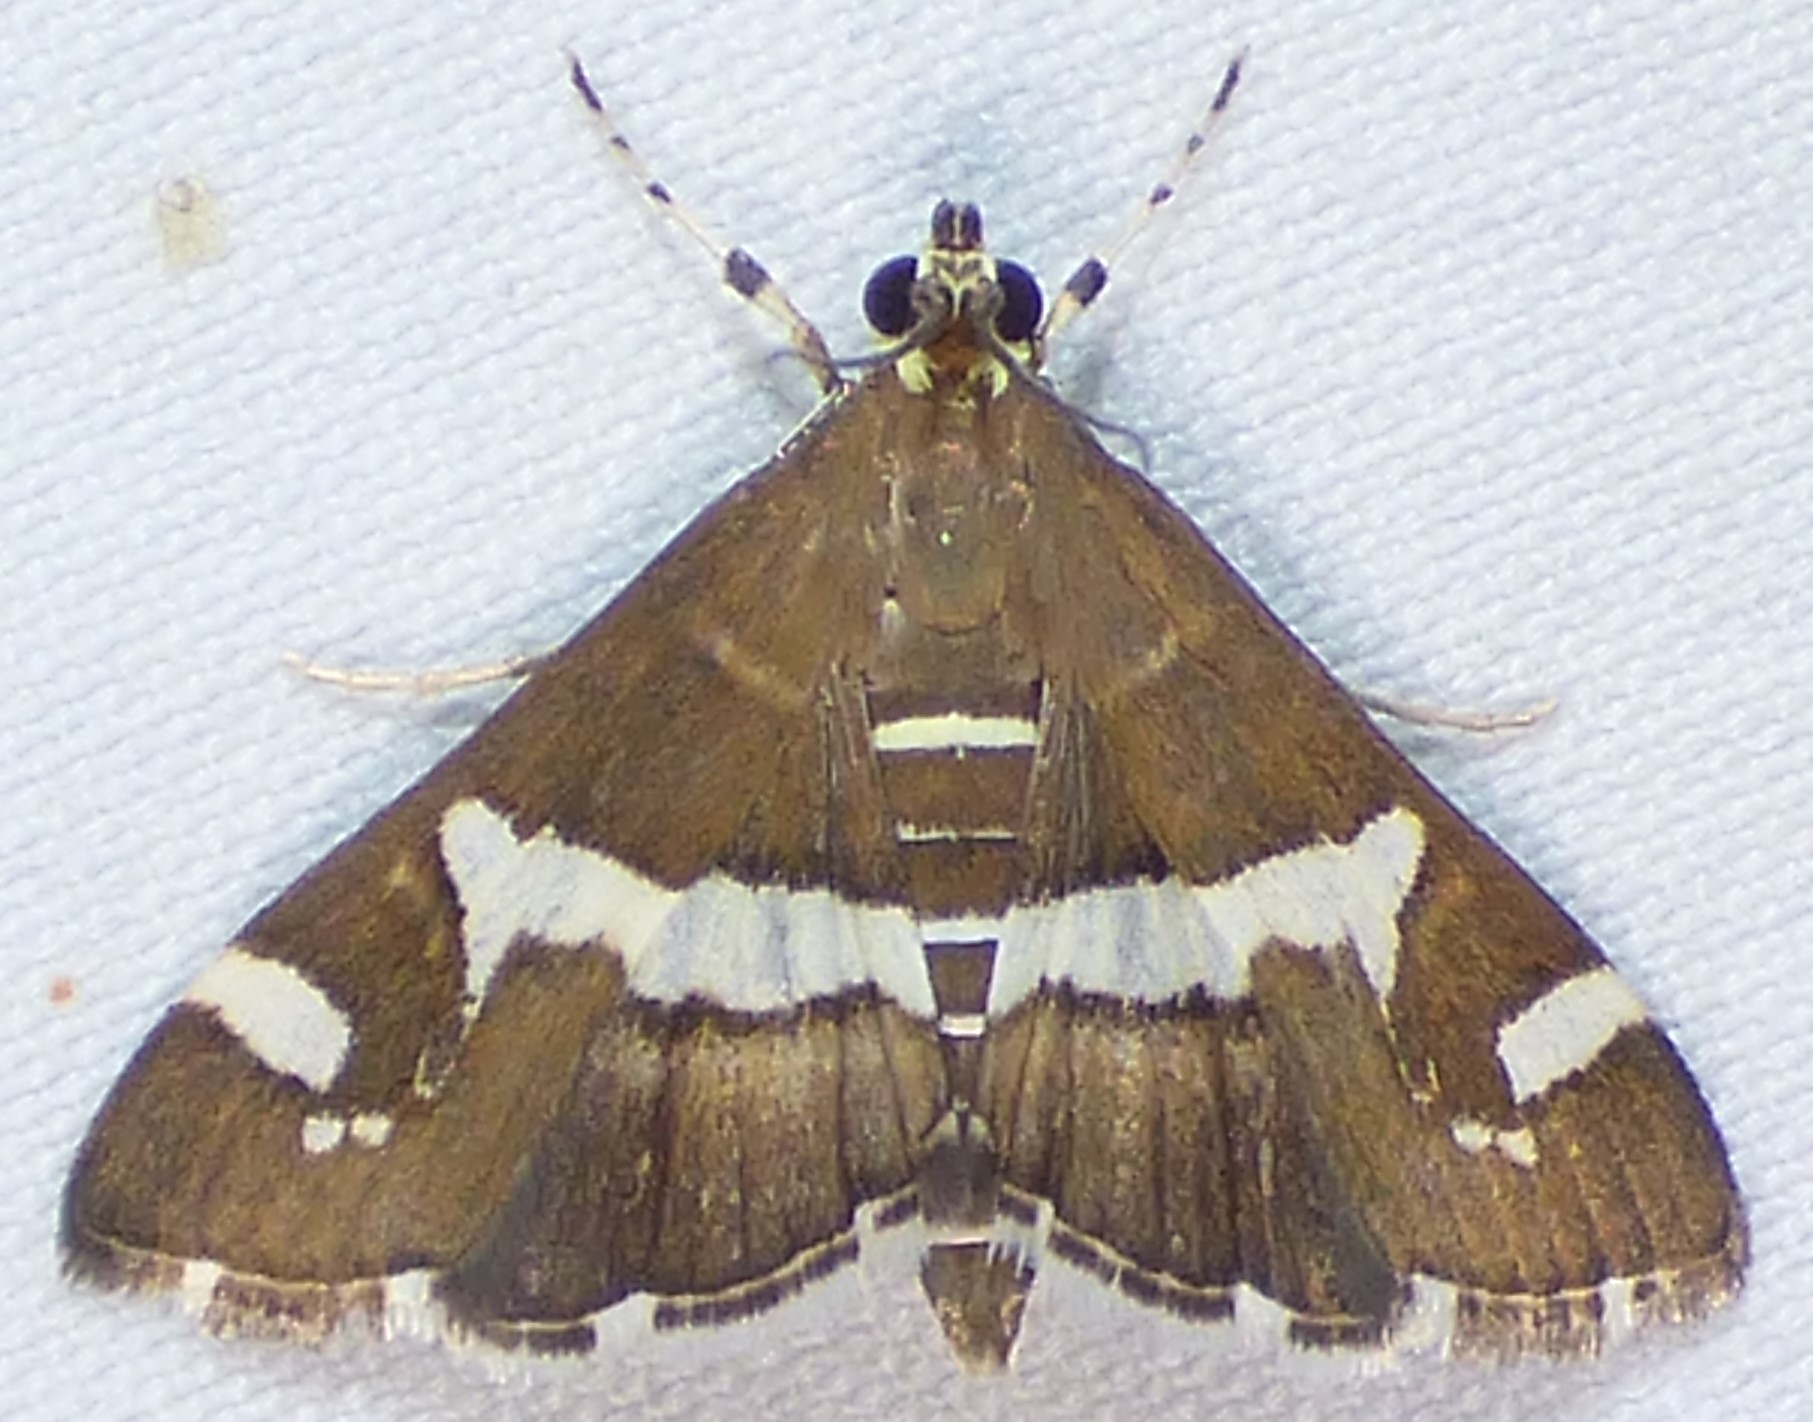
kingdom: Animalia
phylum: Arthropoda
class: Insecta
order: Lepidoptera
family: Crambidae
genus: Spoladea
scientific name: Spoladea recurvalis
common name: Beet webworm moth
